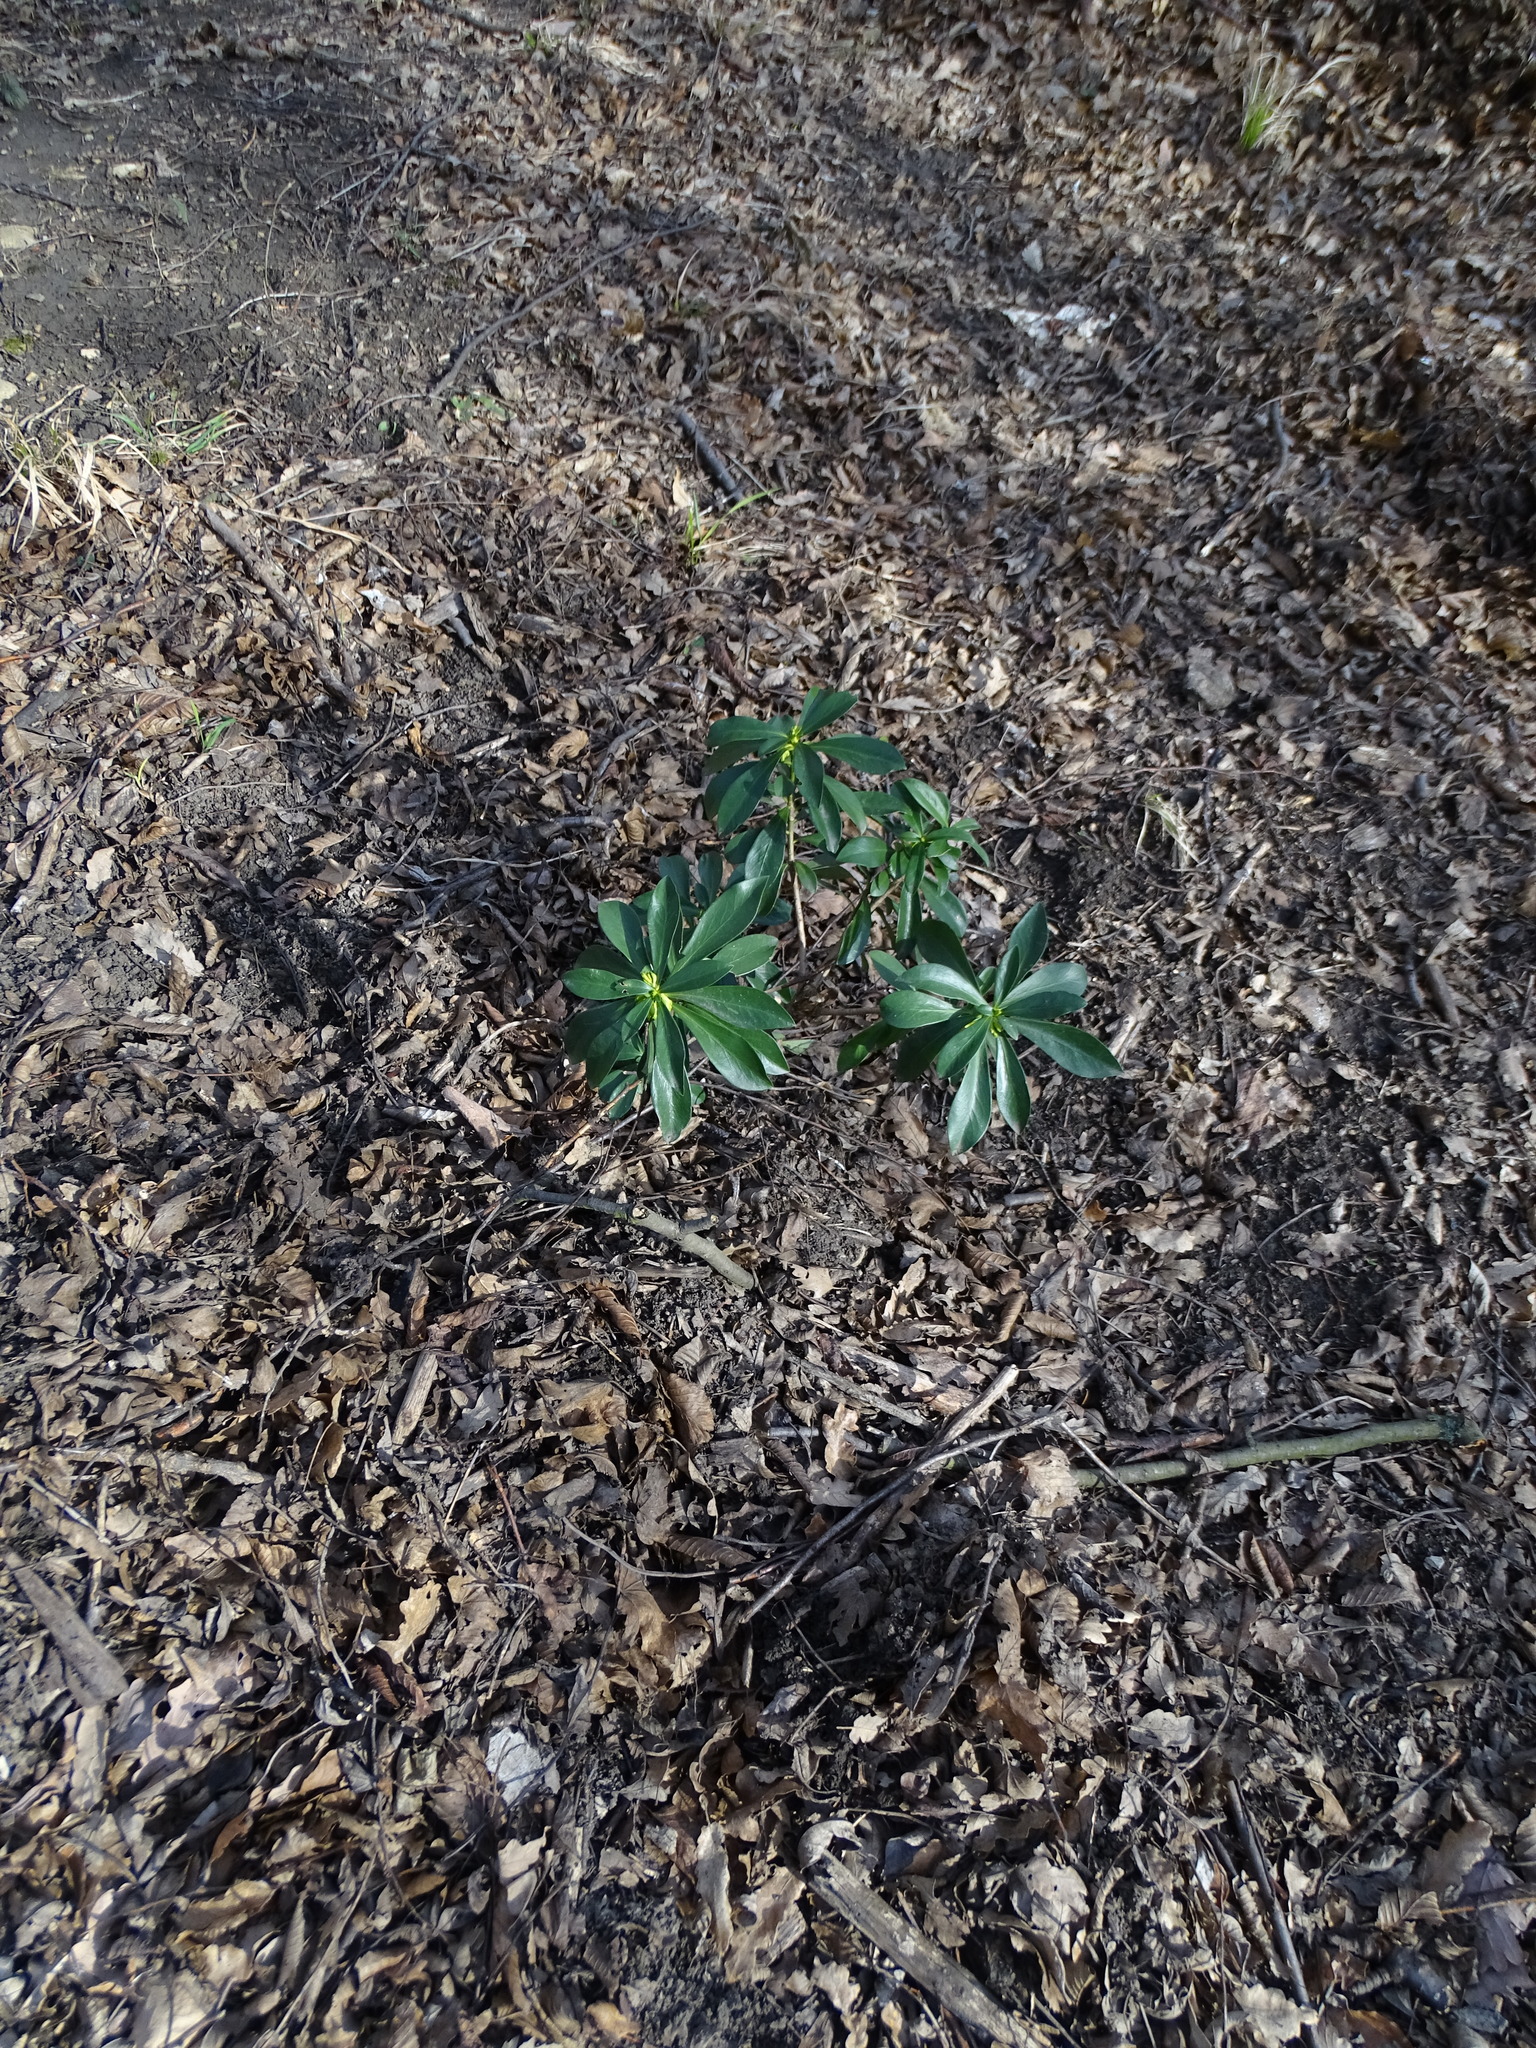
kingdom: Plantae
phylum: Tracheophyta
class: Magnoliopsida
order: Malvales
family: Thymelaeaceae
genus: Daphne
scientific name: Daphne laureola
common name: Spurge-laurel
